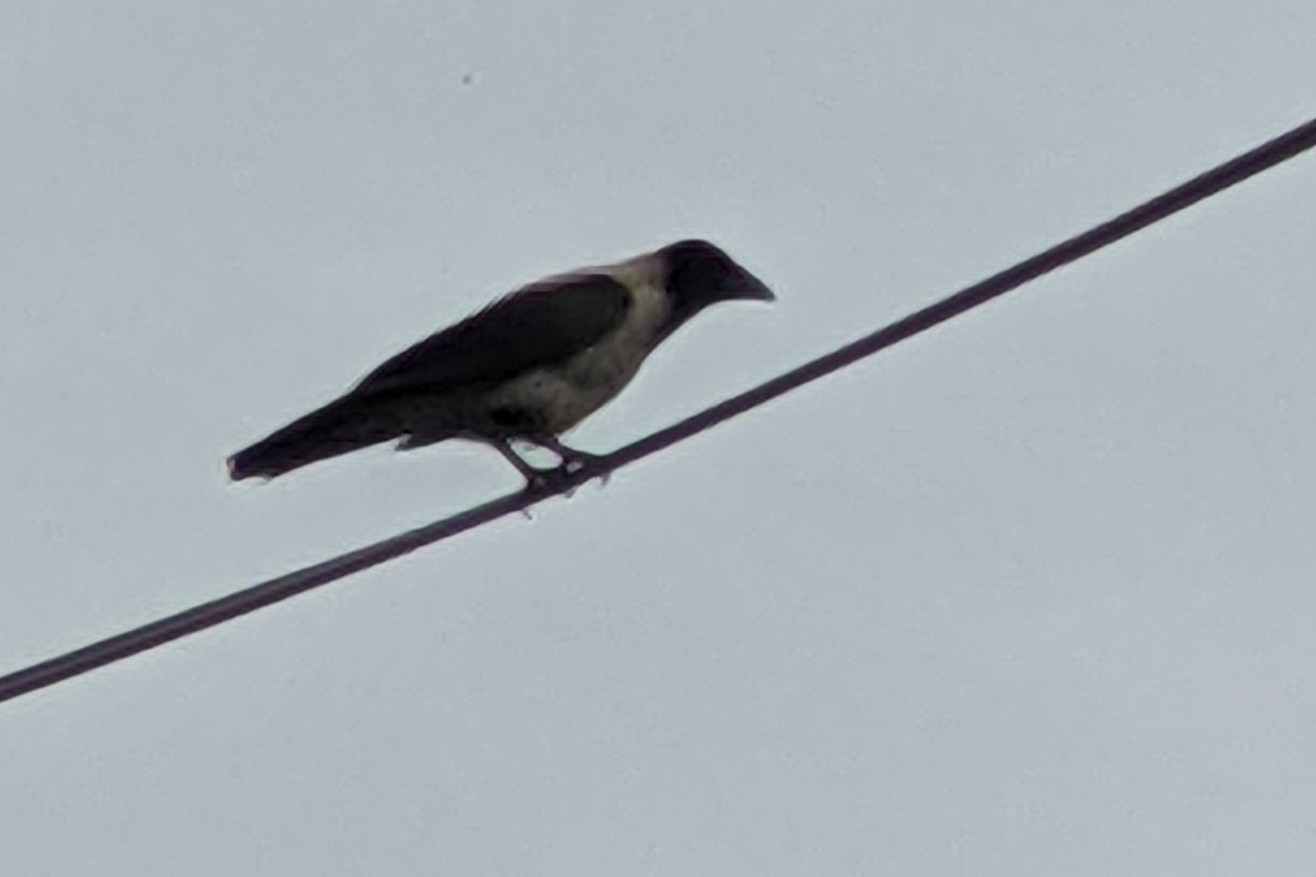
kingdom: Animalia
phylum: Chordata
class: Aves
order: Passeriformes
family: Corvidae
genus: Corvus
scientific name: Corvus cornix
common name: Hooded crow
